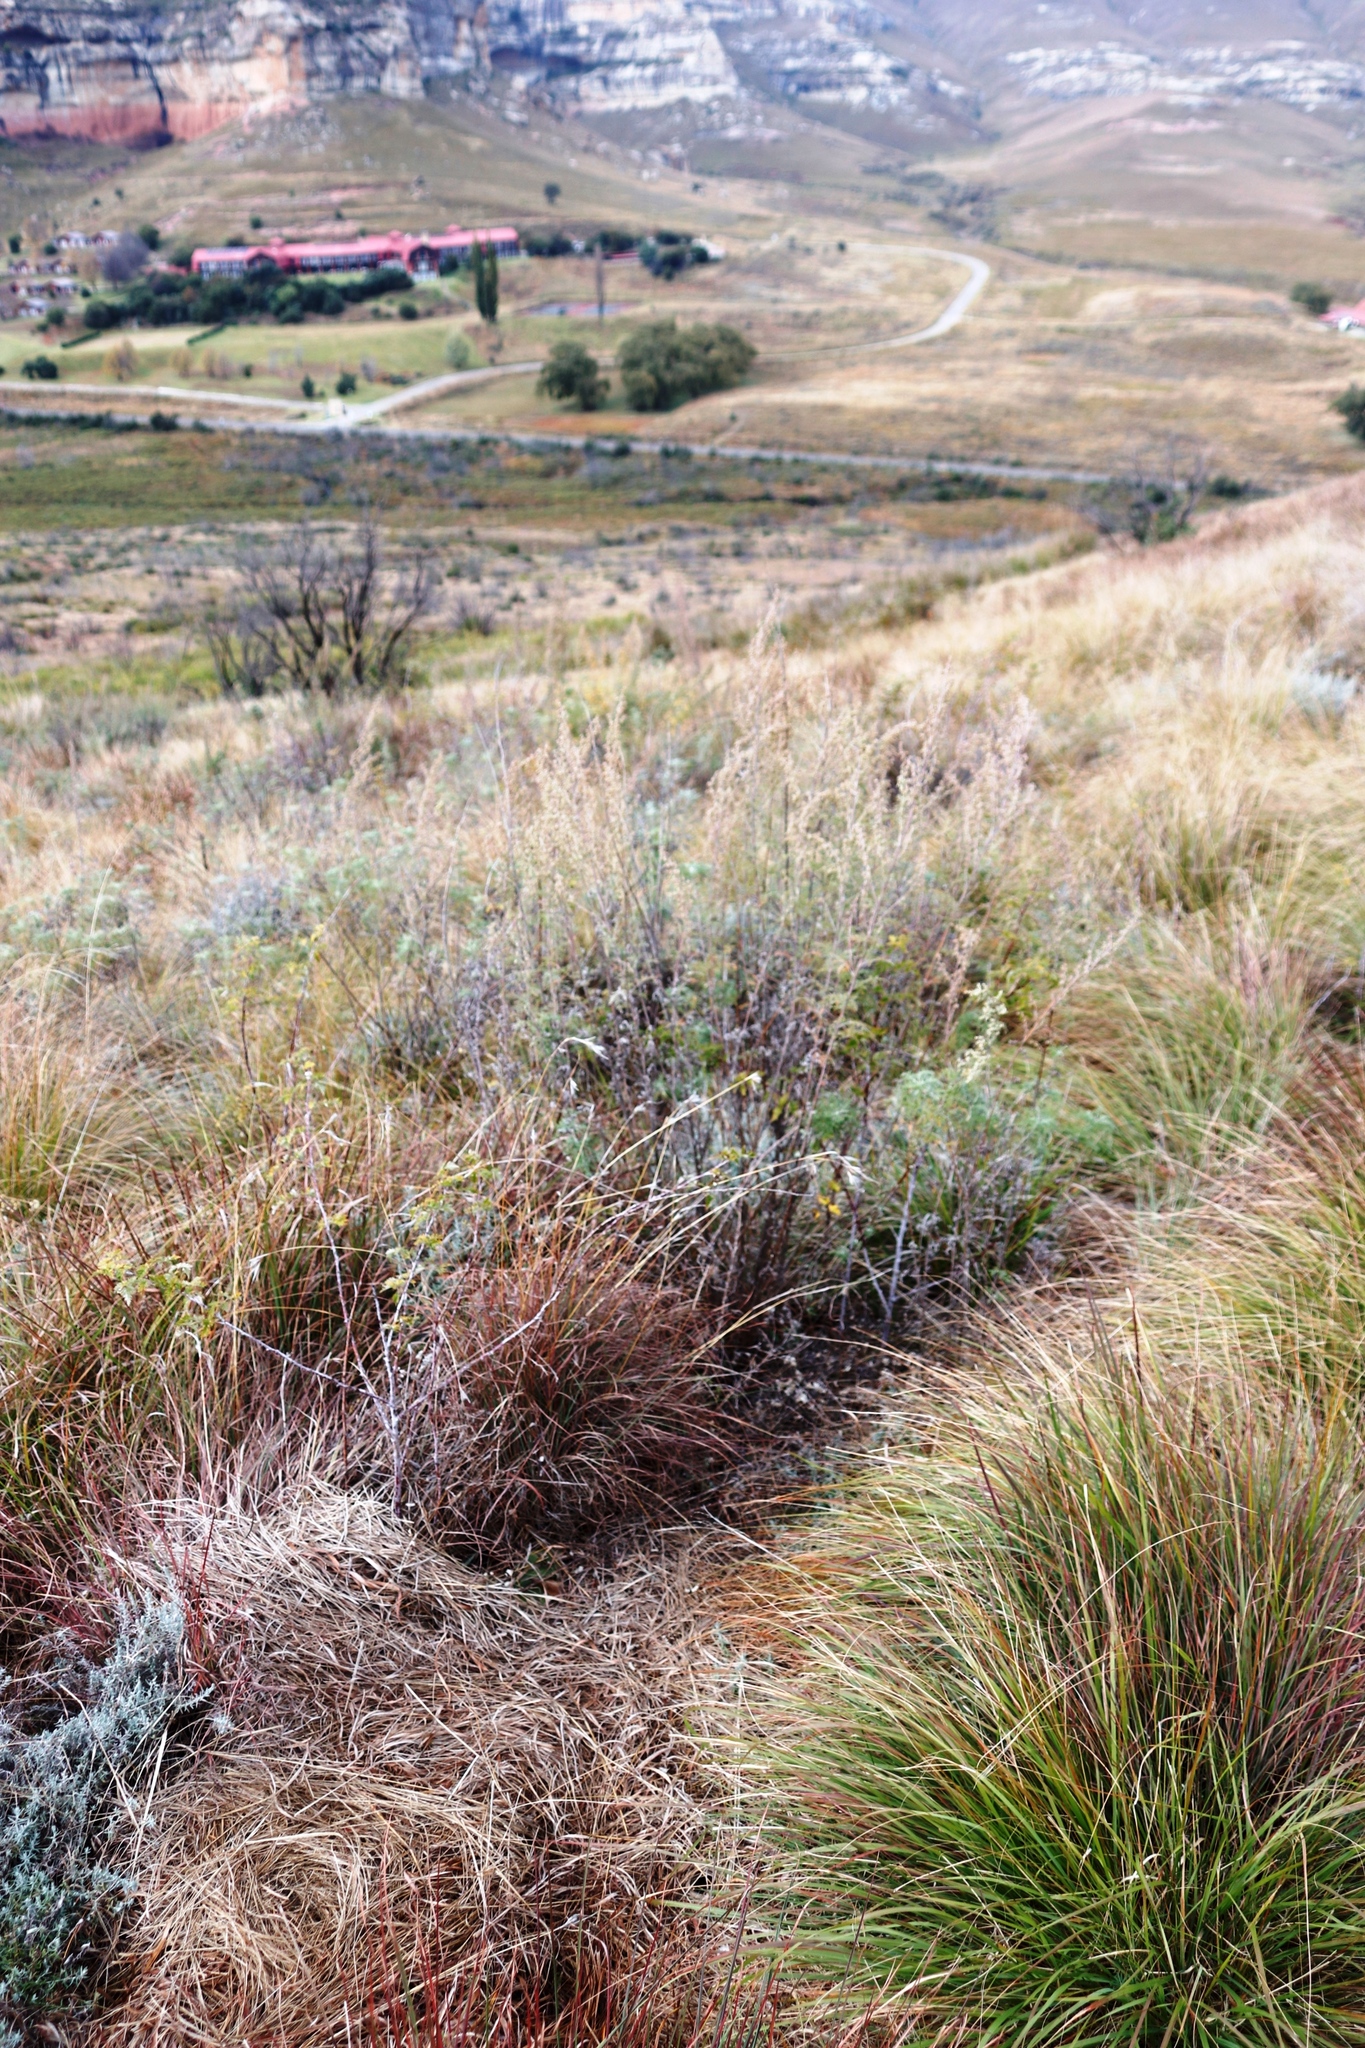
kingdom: Plantae
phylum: Tracheophyta
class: Magnoliopsida
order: Asterales
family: Asteraceae
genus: Artemisia
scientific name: Artemisia afra
